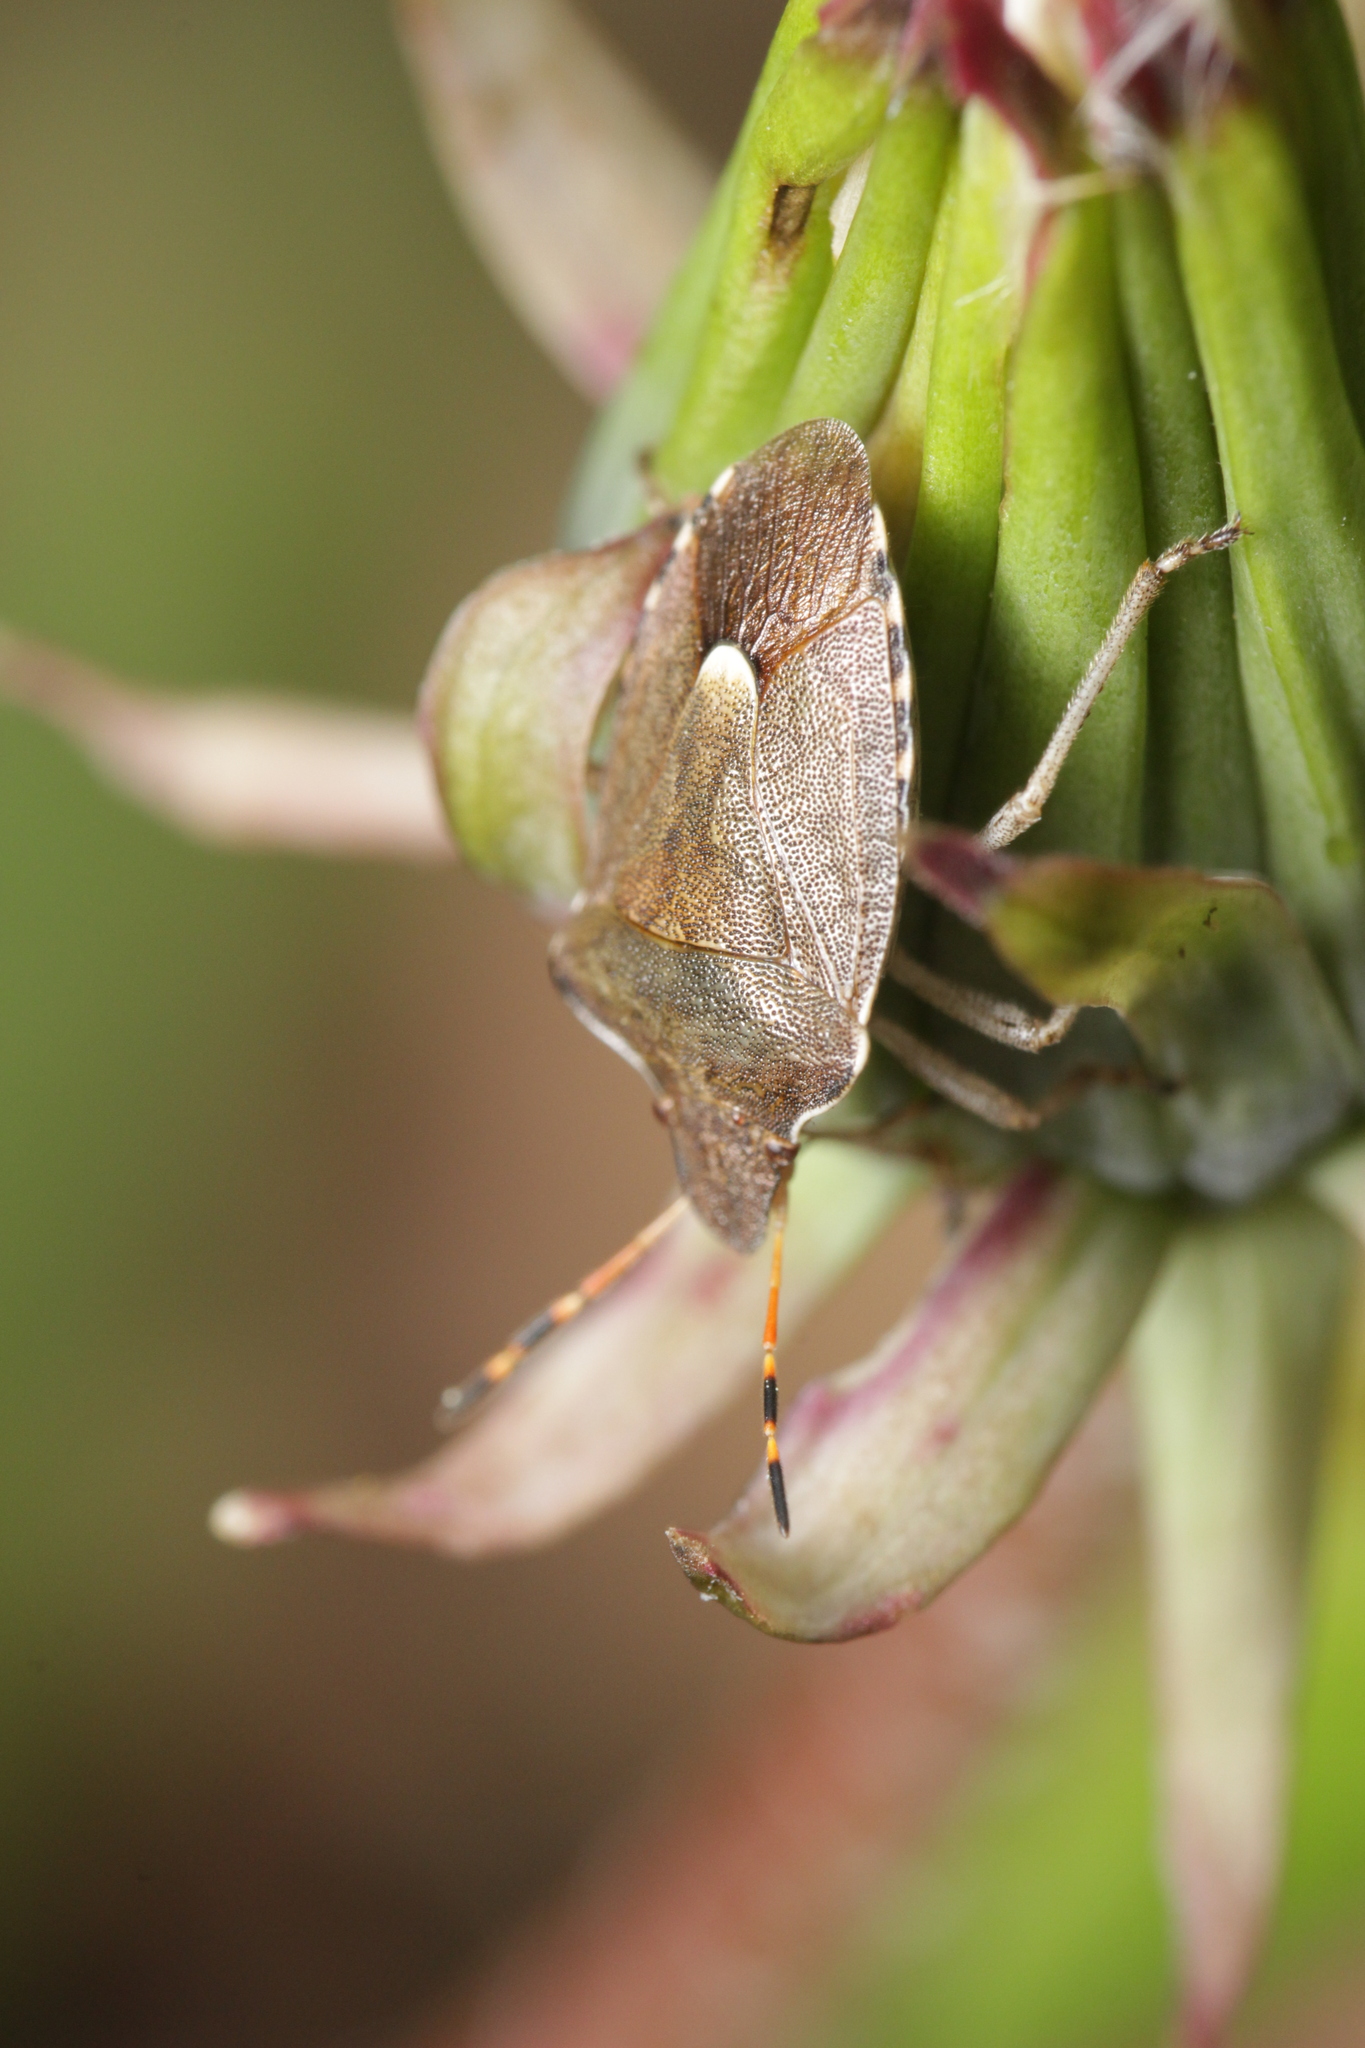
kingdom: Animalia
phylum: Arthropoda
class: Insecta
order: Hemiptera
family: Pentatomidae
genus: Holcostethus
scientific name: Holcostethus strictus
